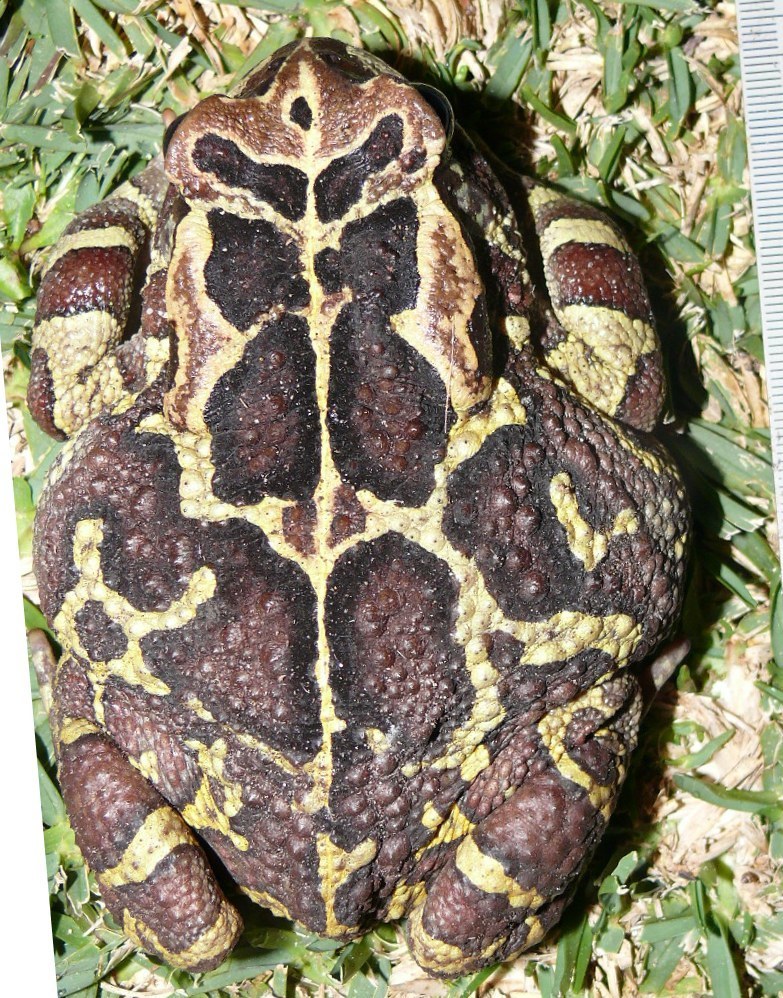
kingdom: Animalia
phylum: Chordata
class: Amphibia
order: Anura
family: Bufonidae
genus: Sclerophrys
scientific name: Sclerophrys pantherina
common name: Panther toad
